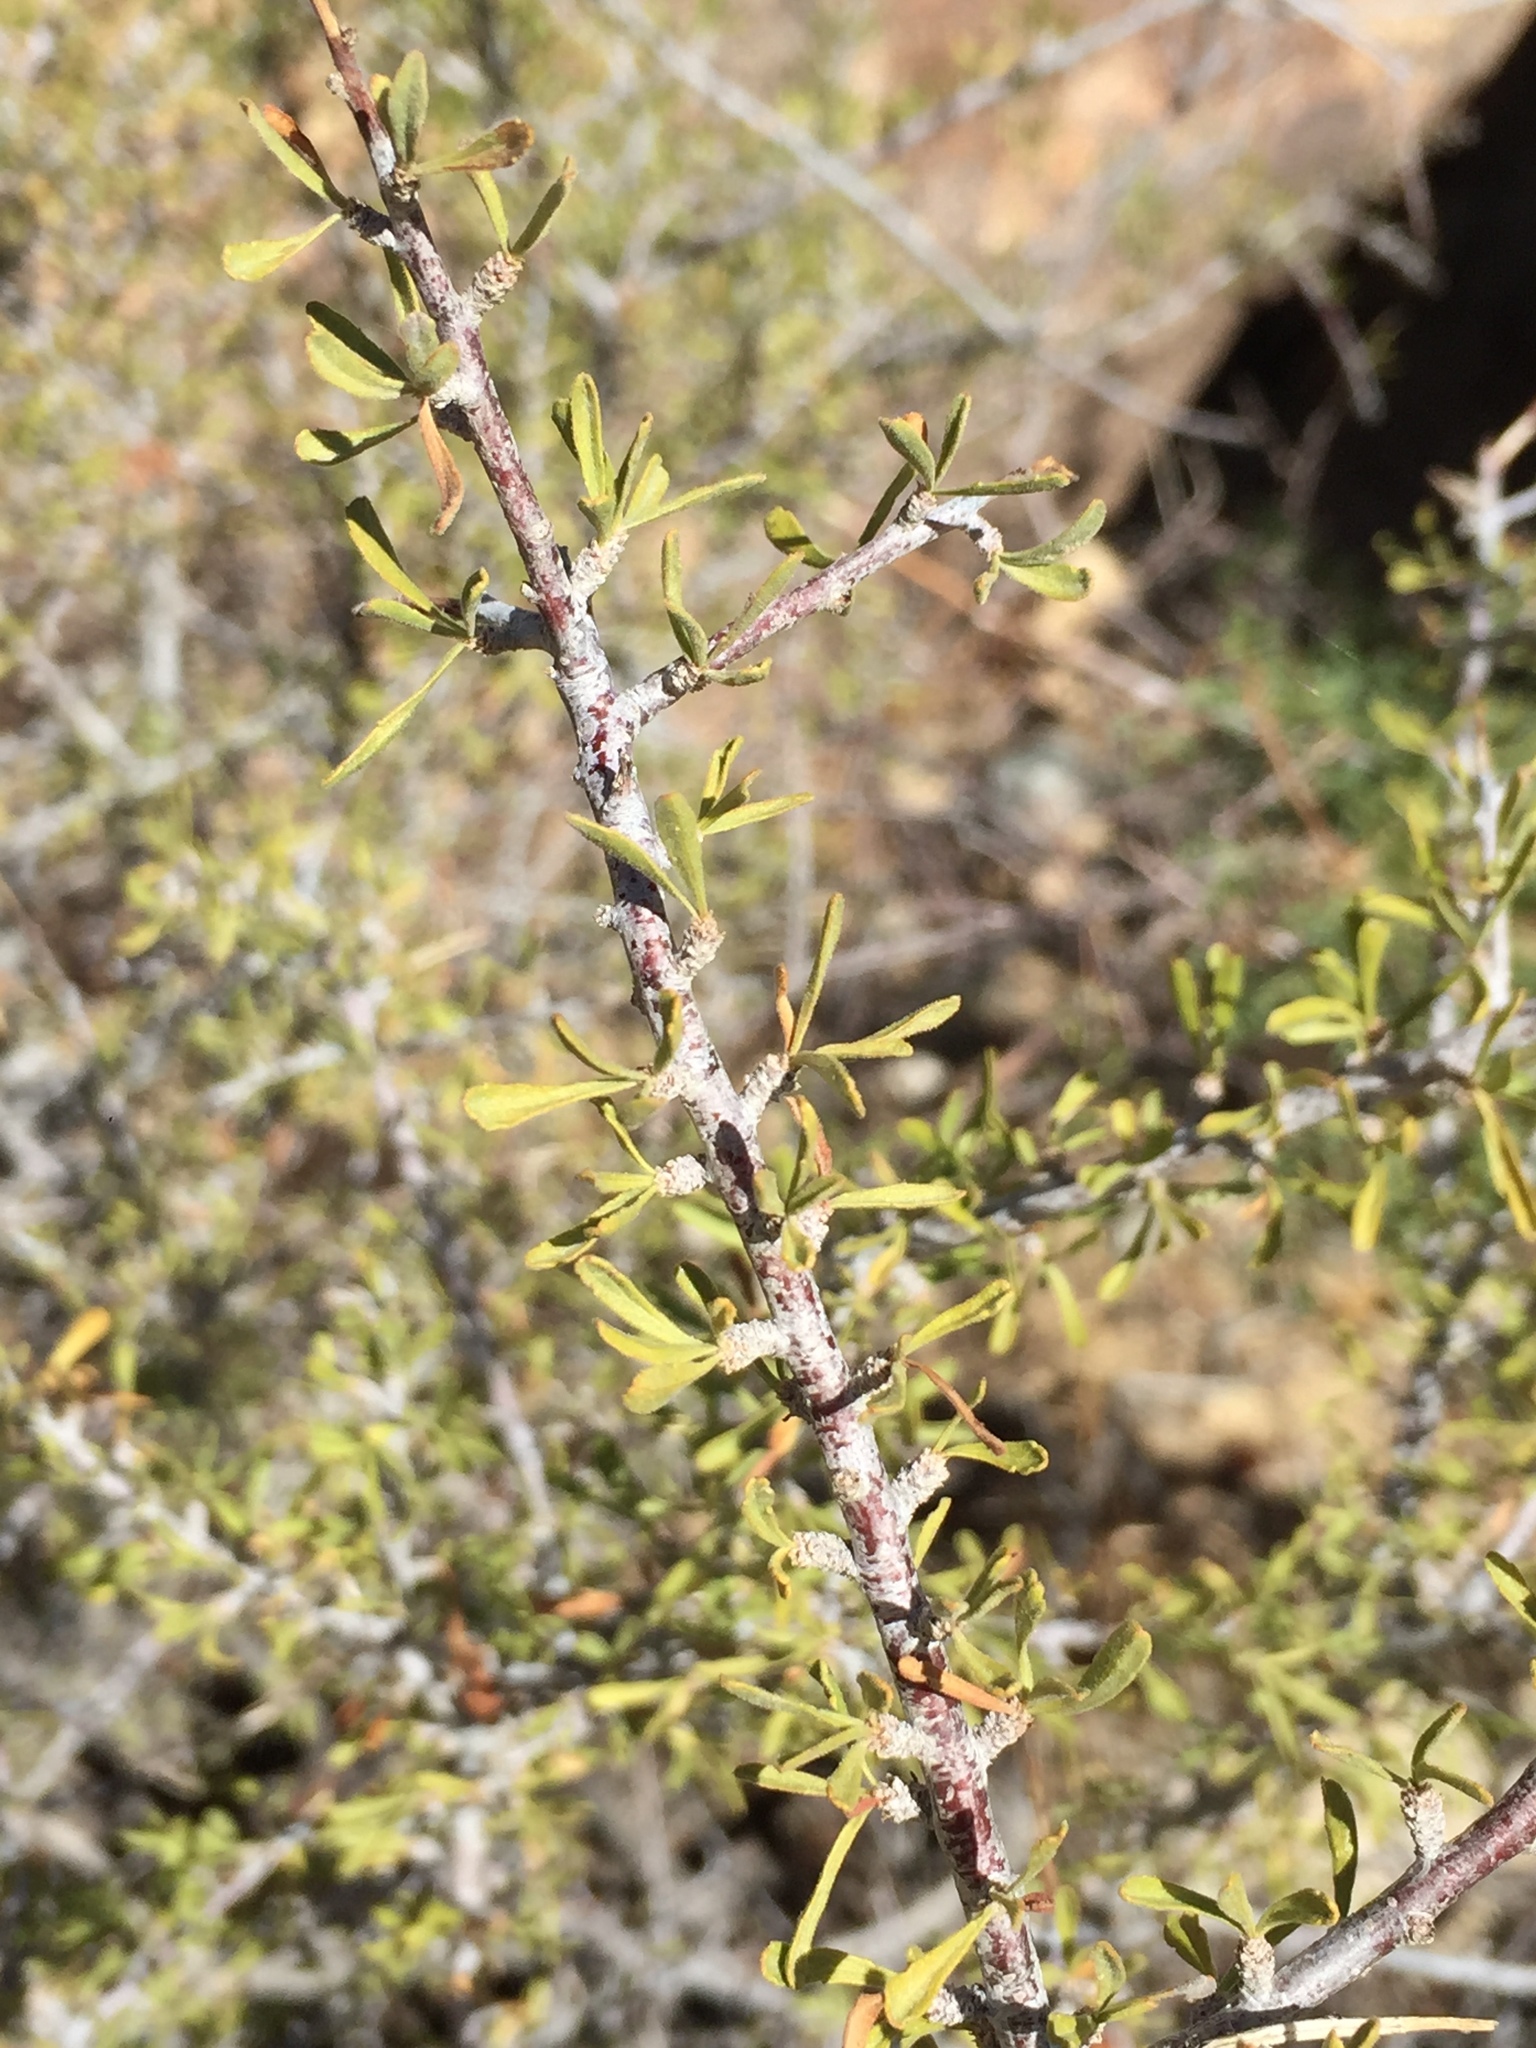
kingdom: Plantae
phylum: Tracheophyta
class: Magnoliopsida
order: Rosales
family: Rosaceae
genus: Prunus
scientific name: Prunus fasciculata
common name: Desert almond
